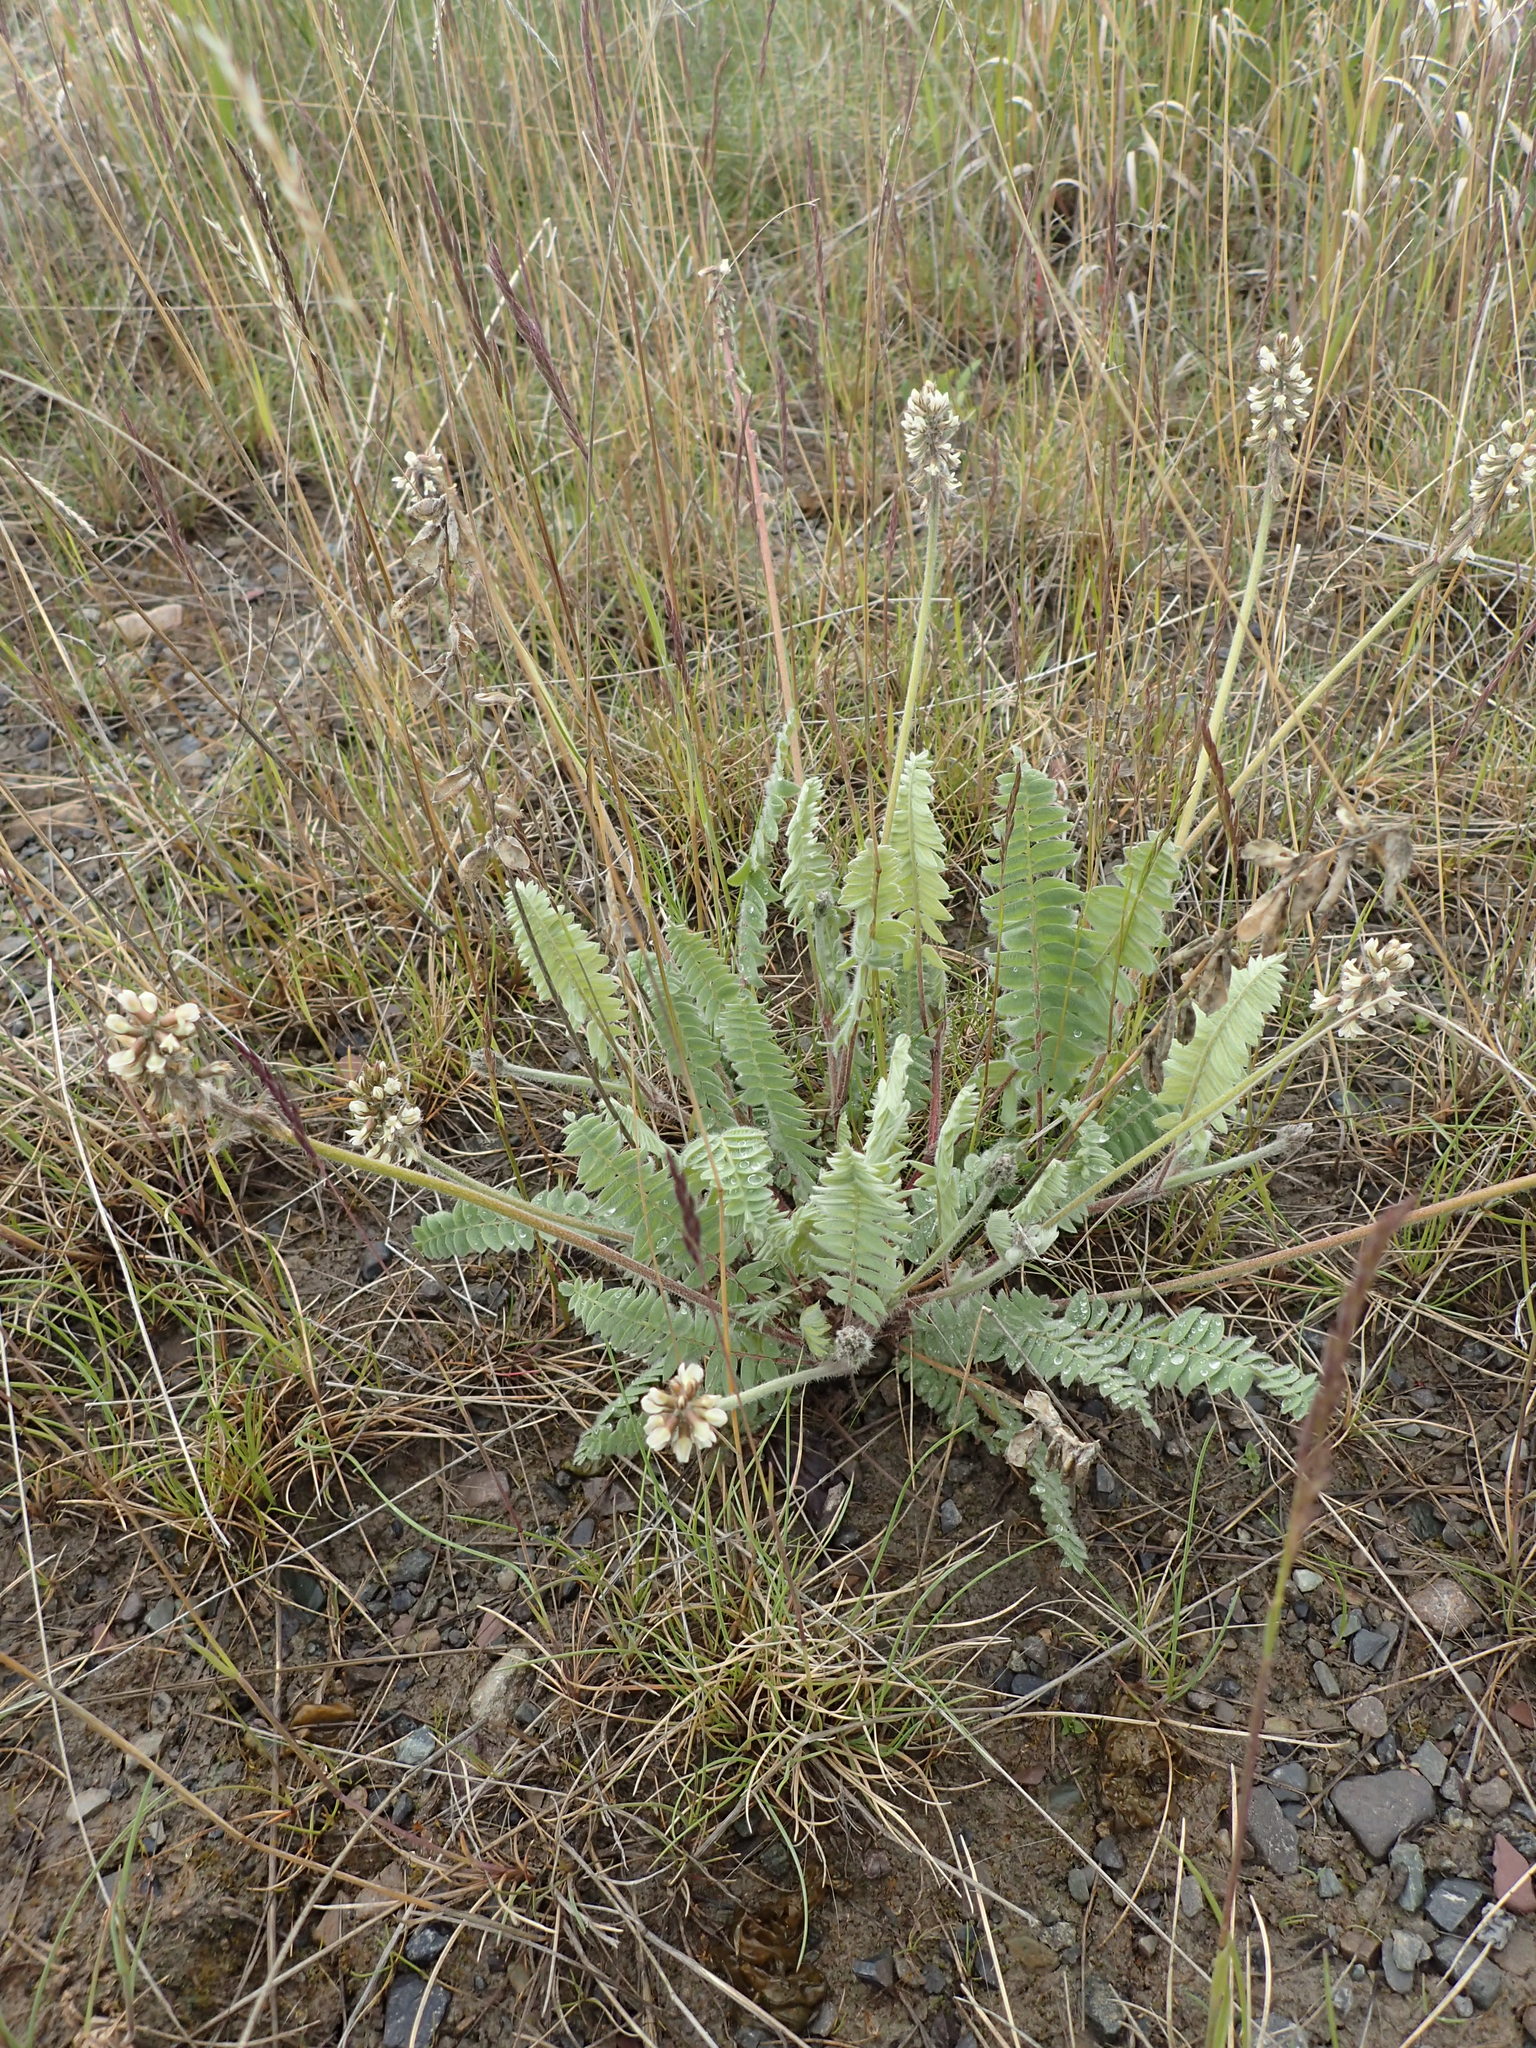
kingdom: Plantae
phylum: Tracheophyta
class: Magnoliopsida
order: Fabales
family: Fabaceae
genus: Oxytropis
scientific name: Oxytropis deflexa
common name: Stemmed oxytrope
